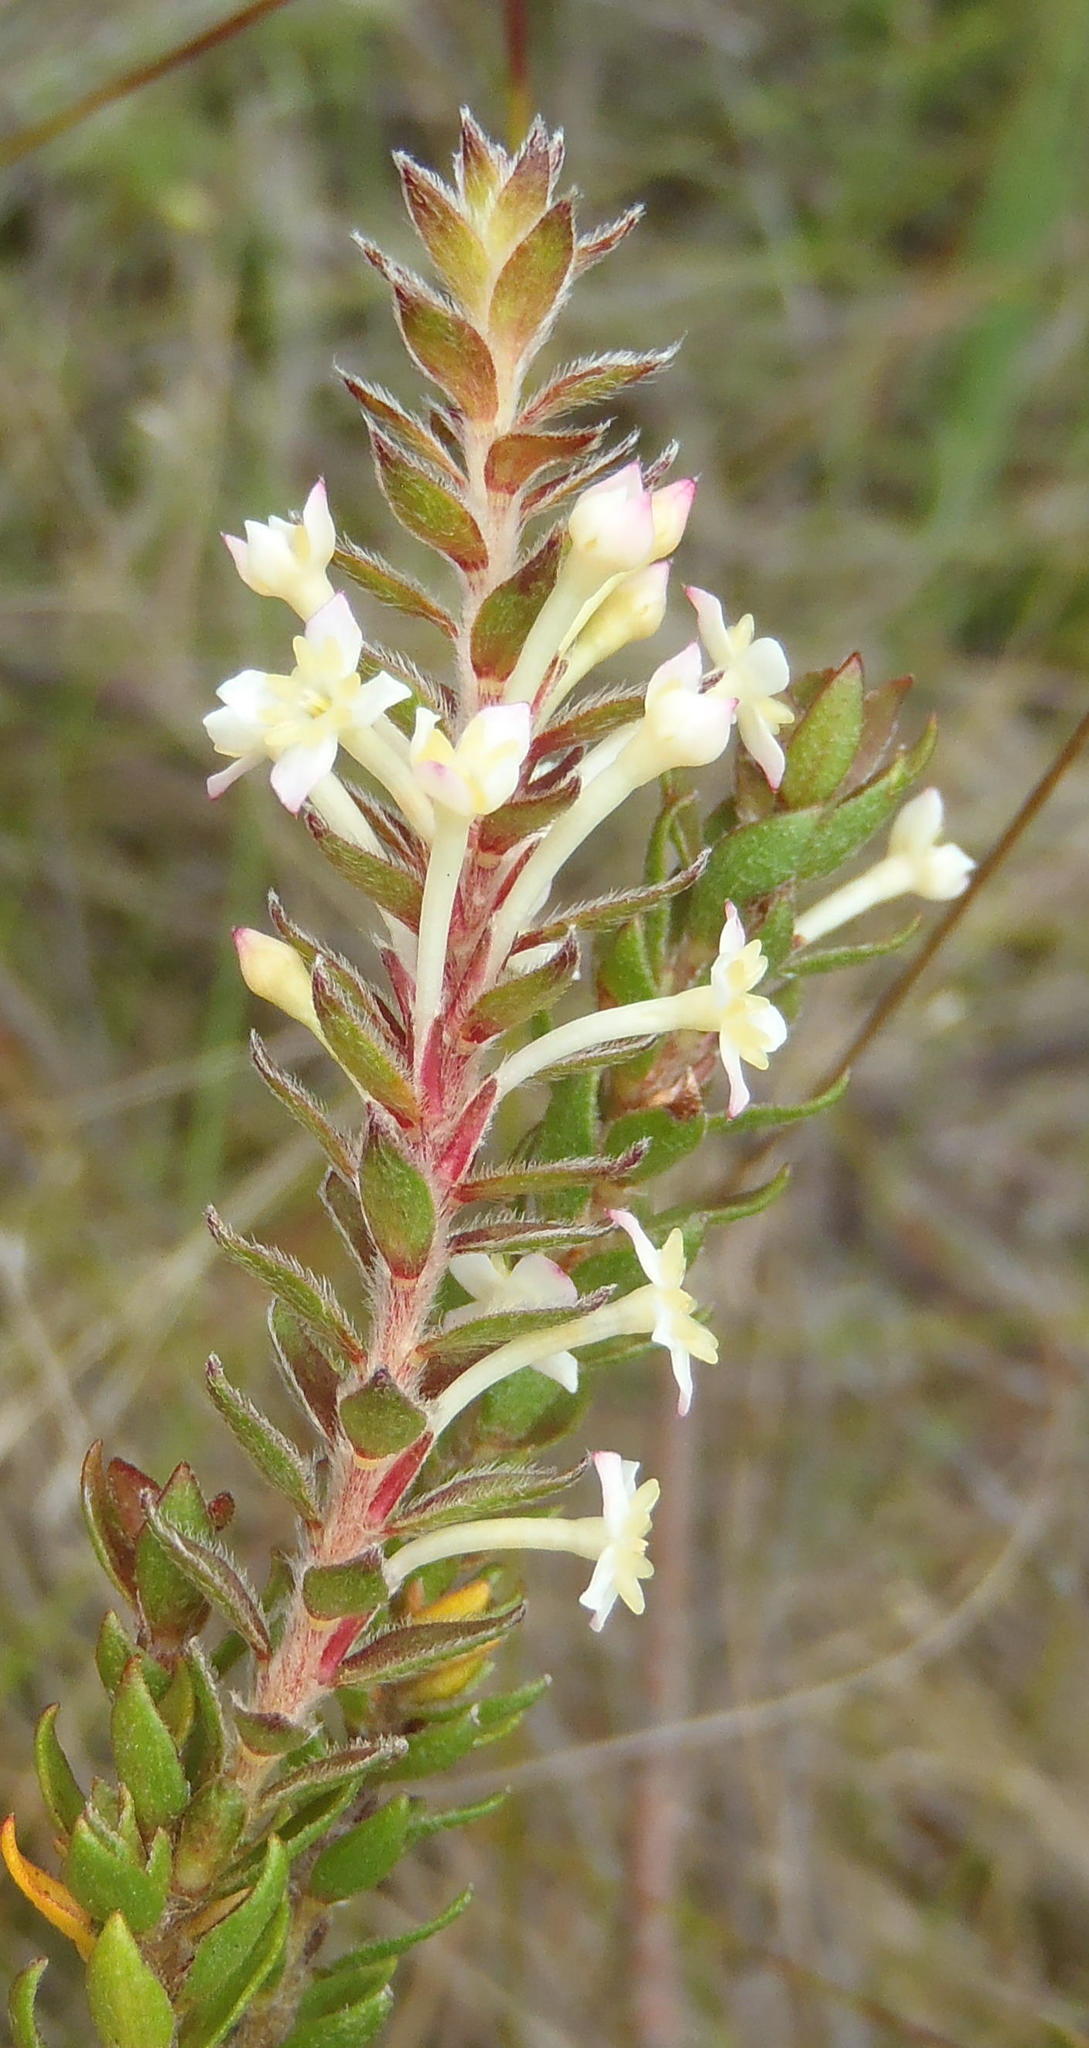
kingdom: Plantae
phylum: Tracheophyta
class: Magnoliopsida
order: Malvales
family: Thymelaeaceae
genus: Struthiola
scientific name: Struthiola hirsuta
